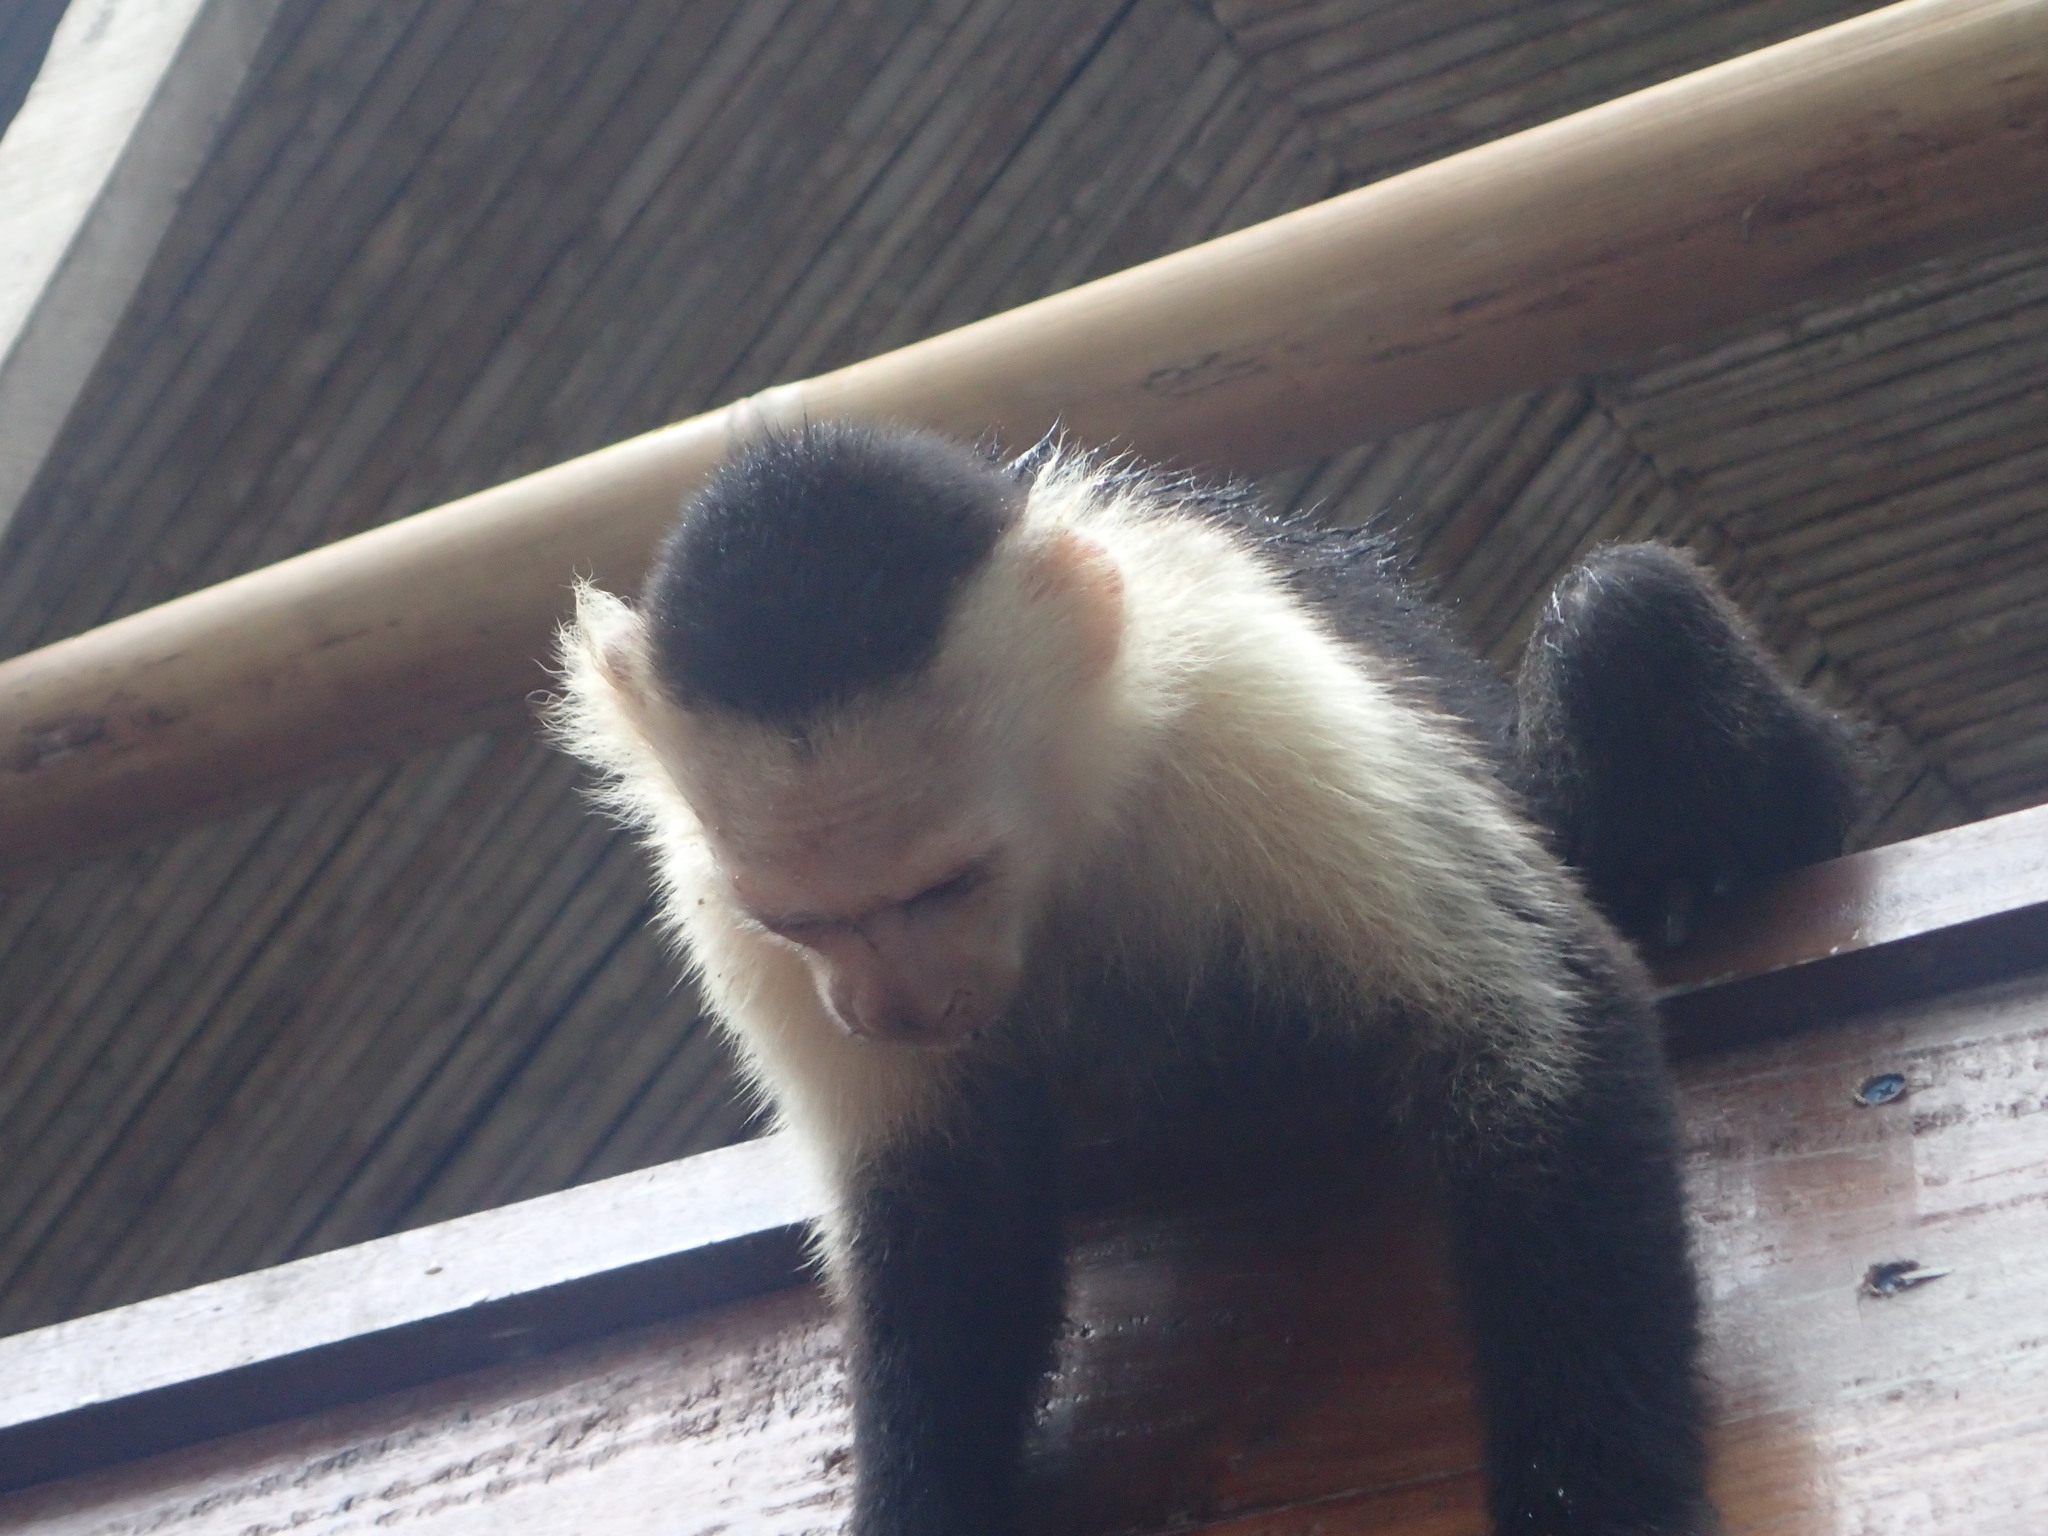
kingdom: Animalia
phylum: Chordata
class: Mammalia
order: Primates
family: Cebidae
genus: Cebus
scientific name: Cebus imitator
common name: Panamanian white-faced capuchin
